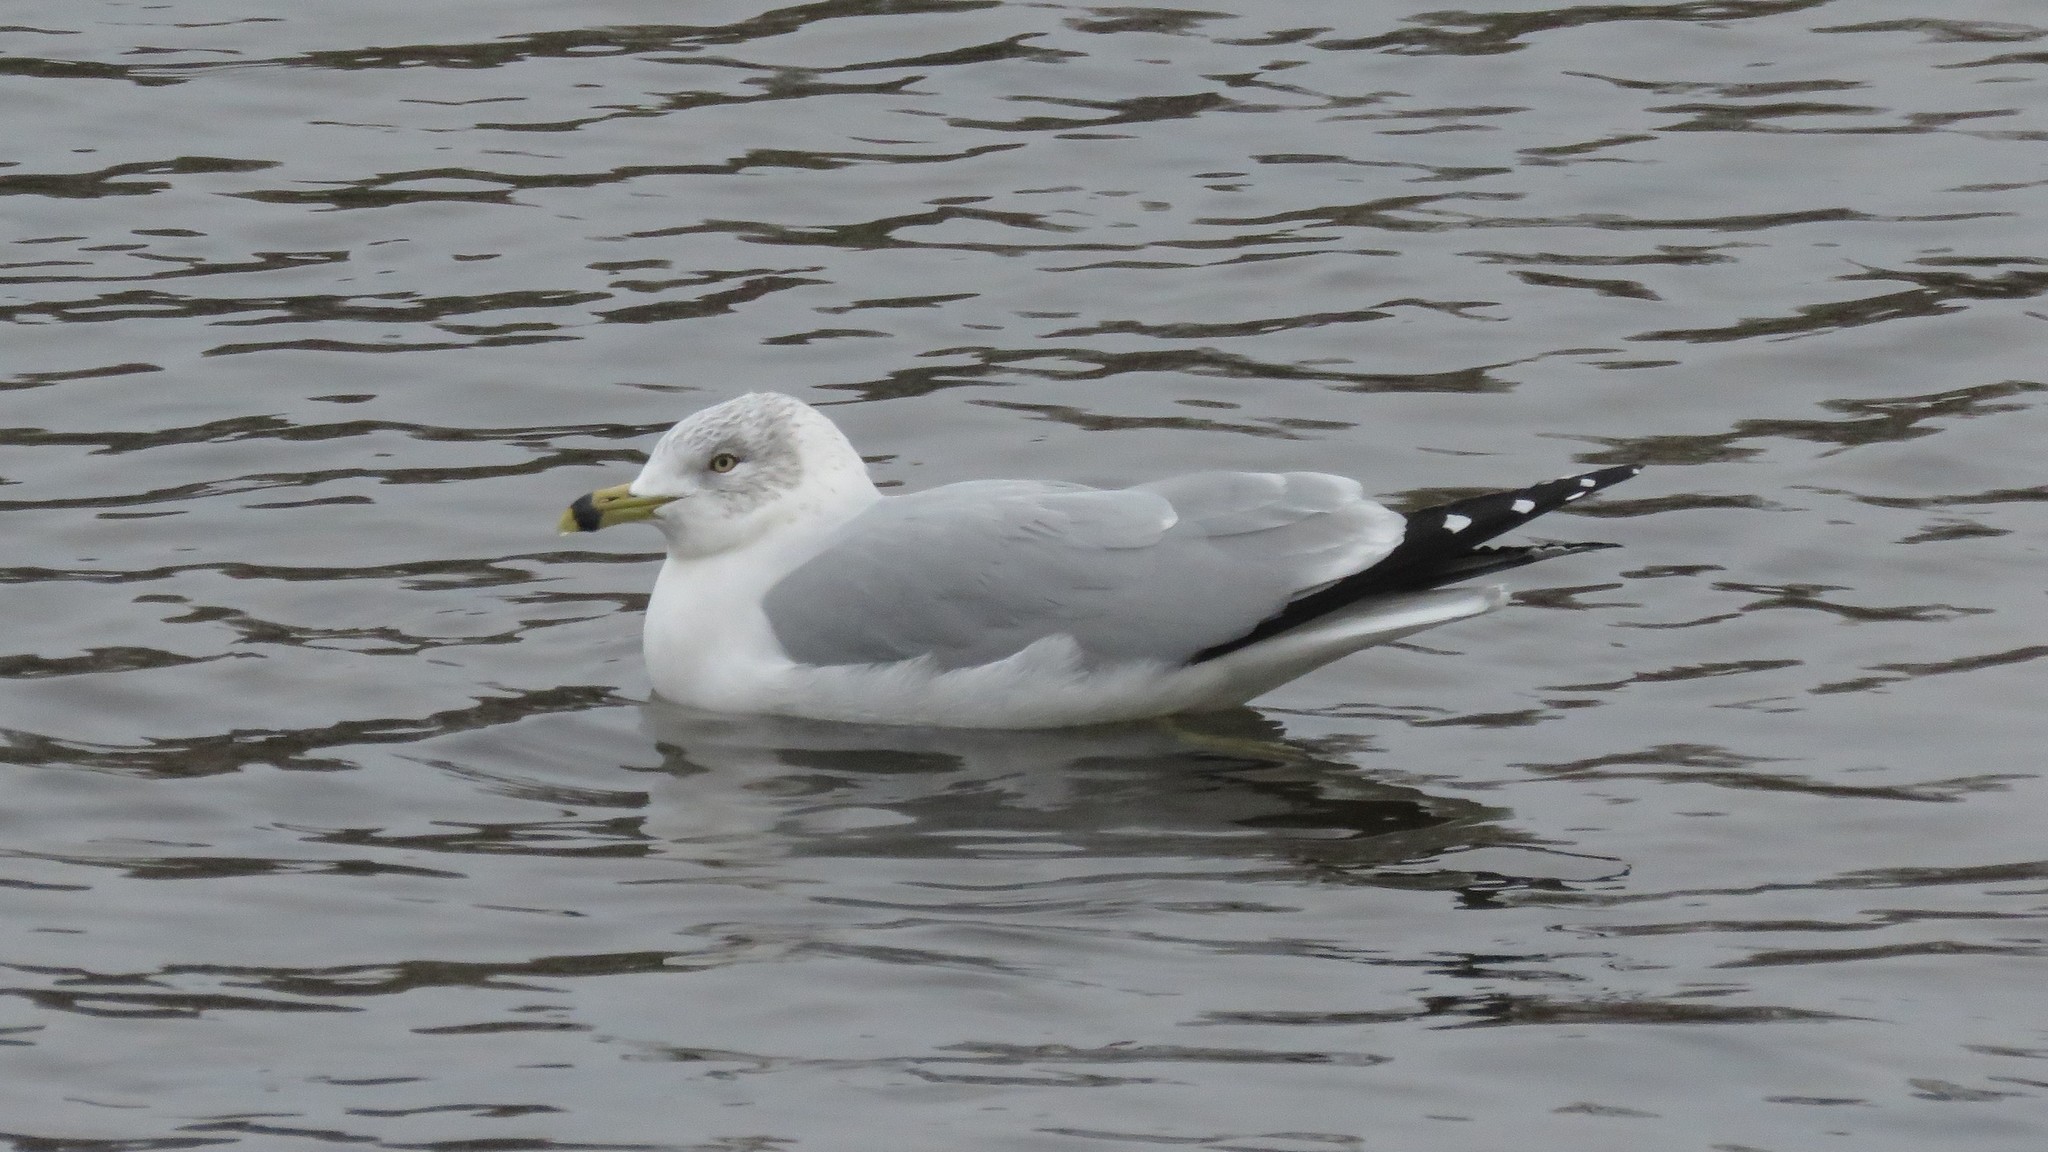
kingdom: Animalia
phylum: Chordata
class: Aves
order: Charadriiformes
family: Laridae
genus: Larus
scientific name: Larus delawarensis
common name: Ring-billed gull
